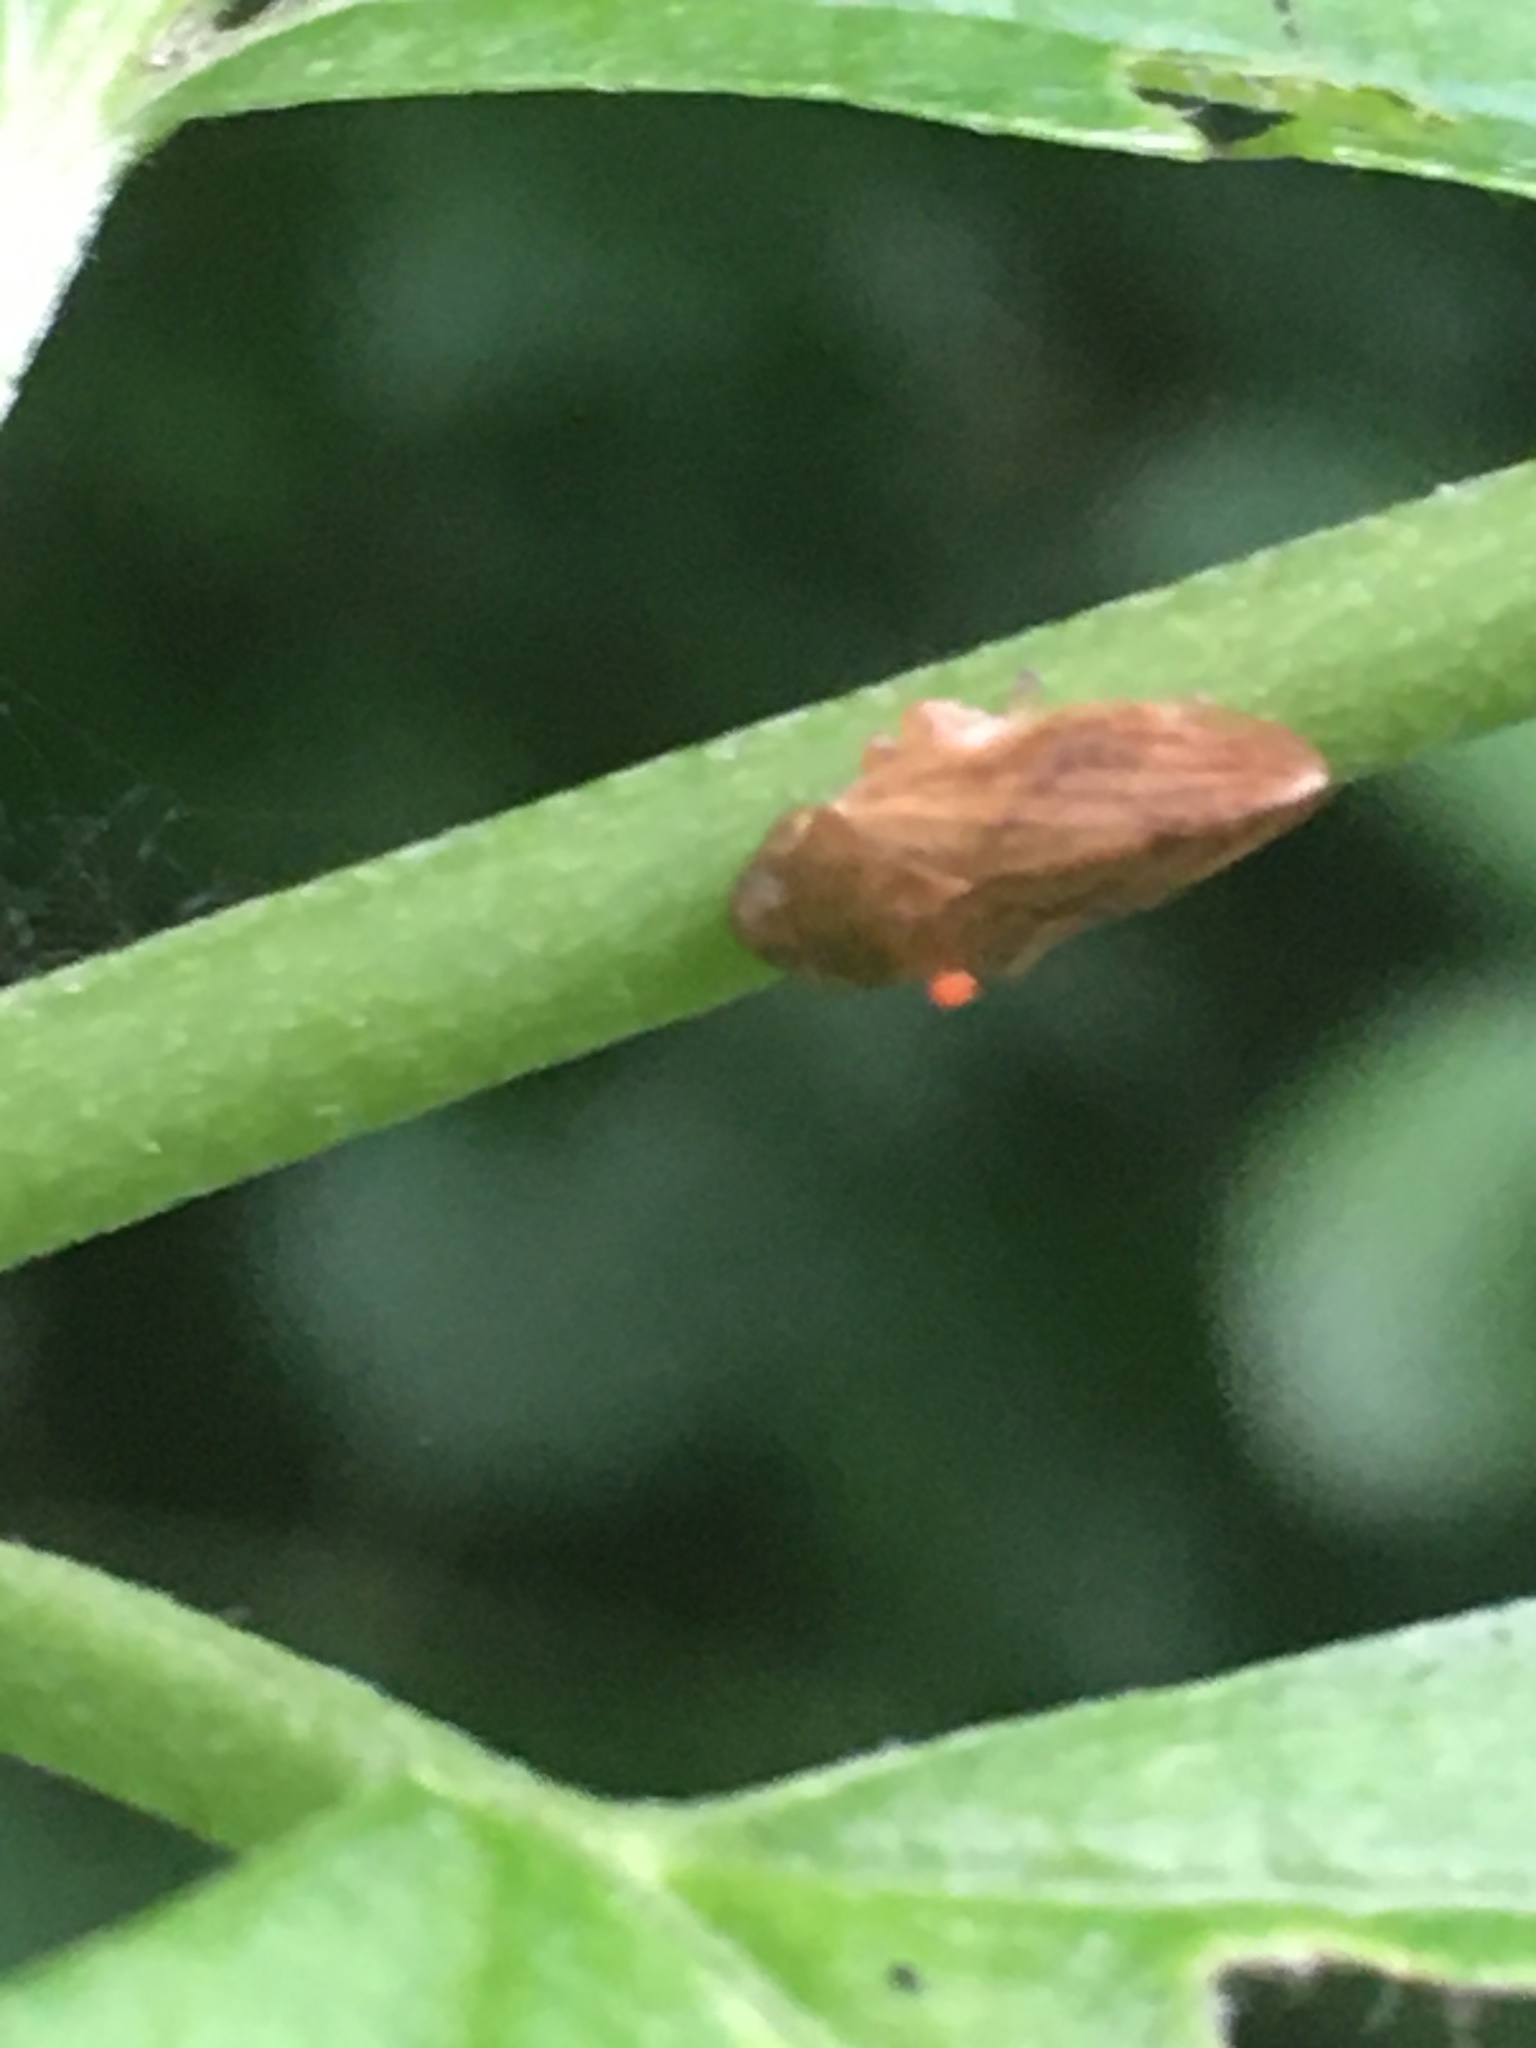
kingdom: Animalia
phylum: Arthropoda
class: Insecta
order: Hemiptera
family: Aphrophoridae
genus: Philaenus
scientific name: Philaenus spumarius
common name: Meadow spittlebug
